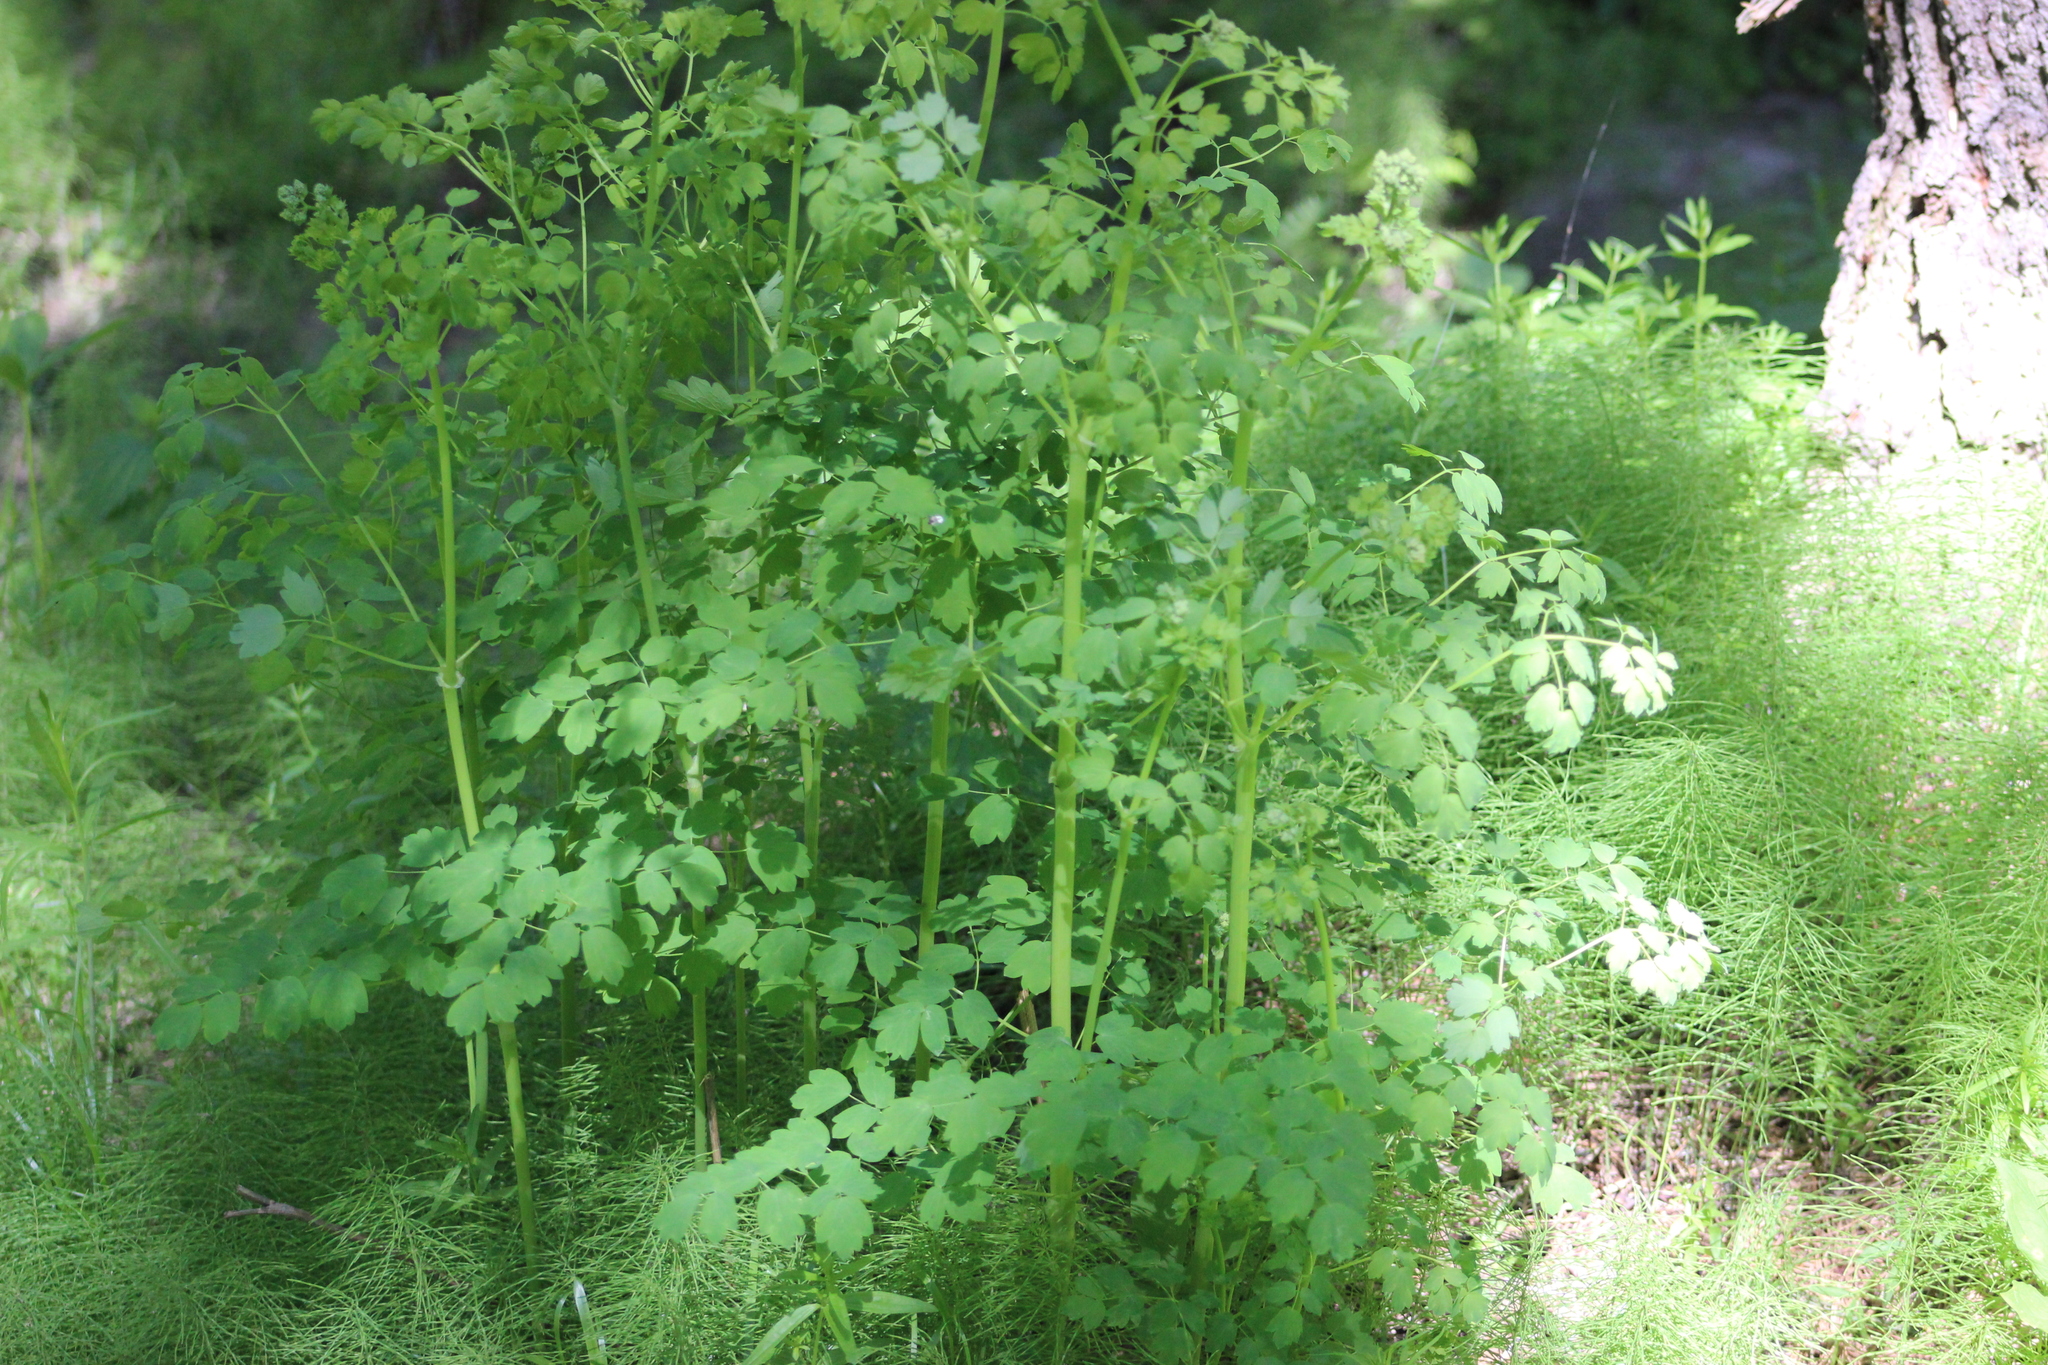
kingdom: Plantae
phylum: Tracheophyta
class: Magnoliopsida
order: Ranunculales
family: Ranunculaceae
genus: Thalictrum
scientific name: Thalictrum minus
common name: Lesser meadow-rue
